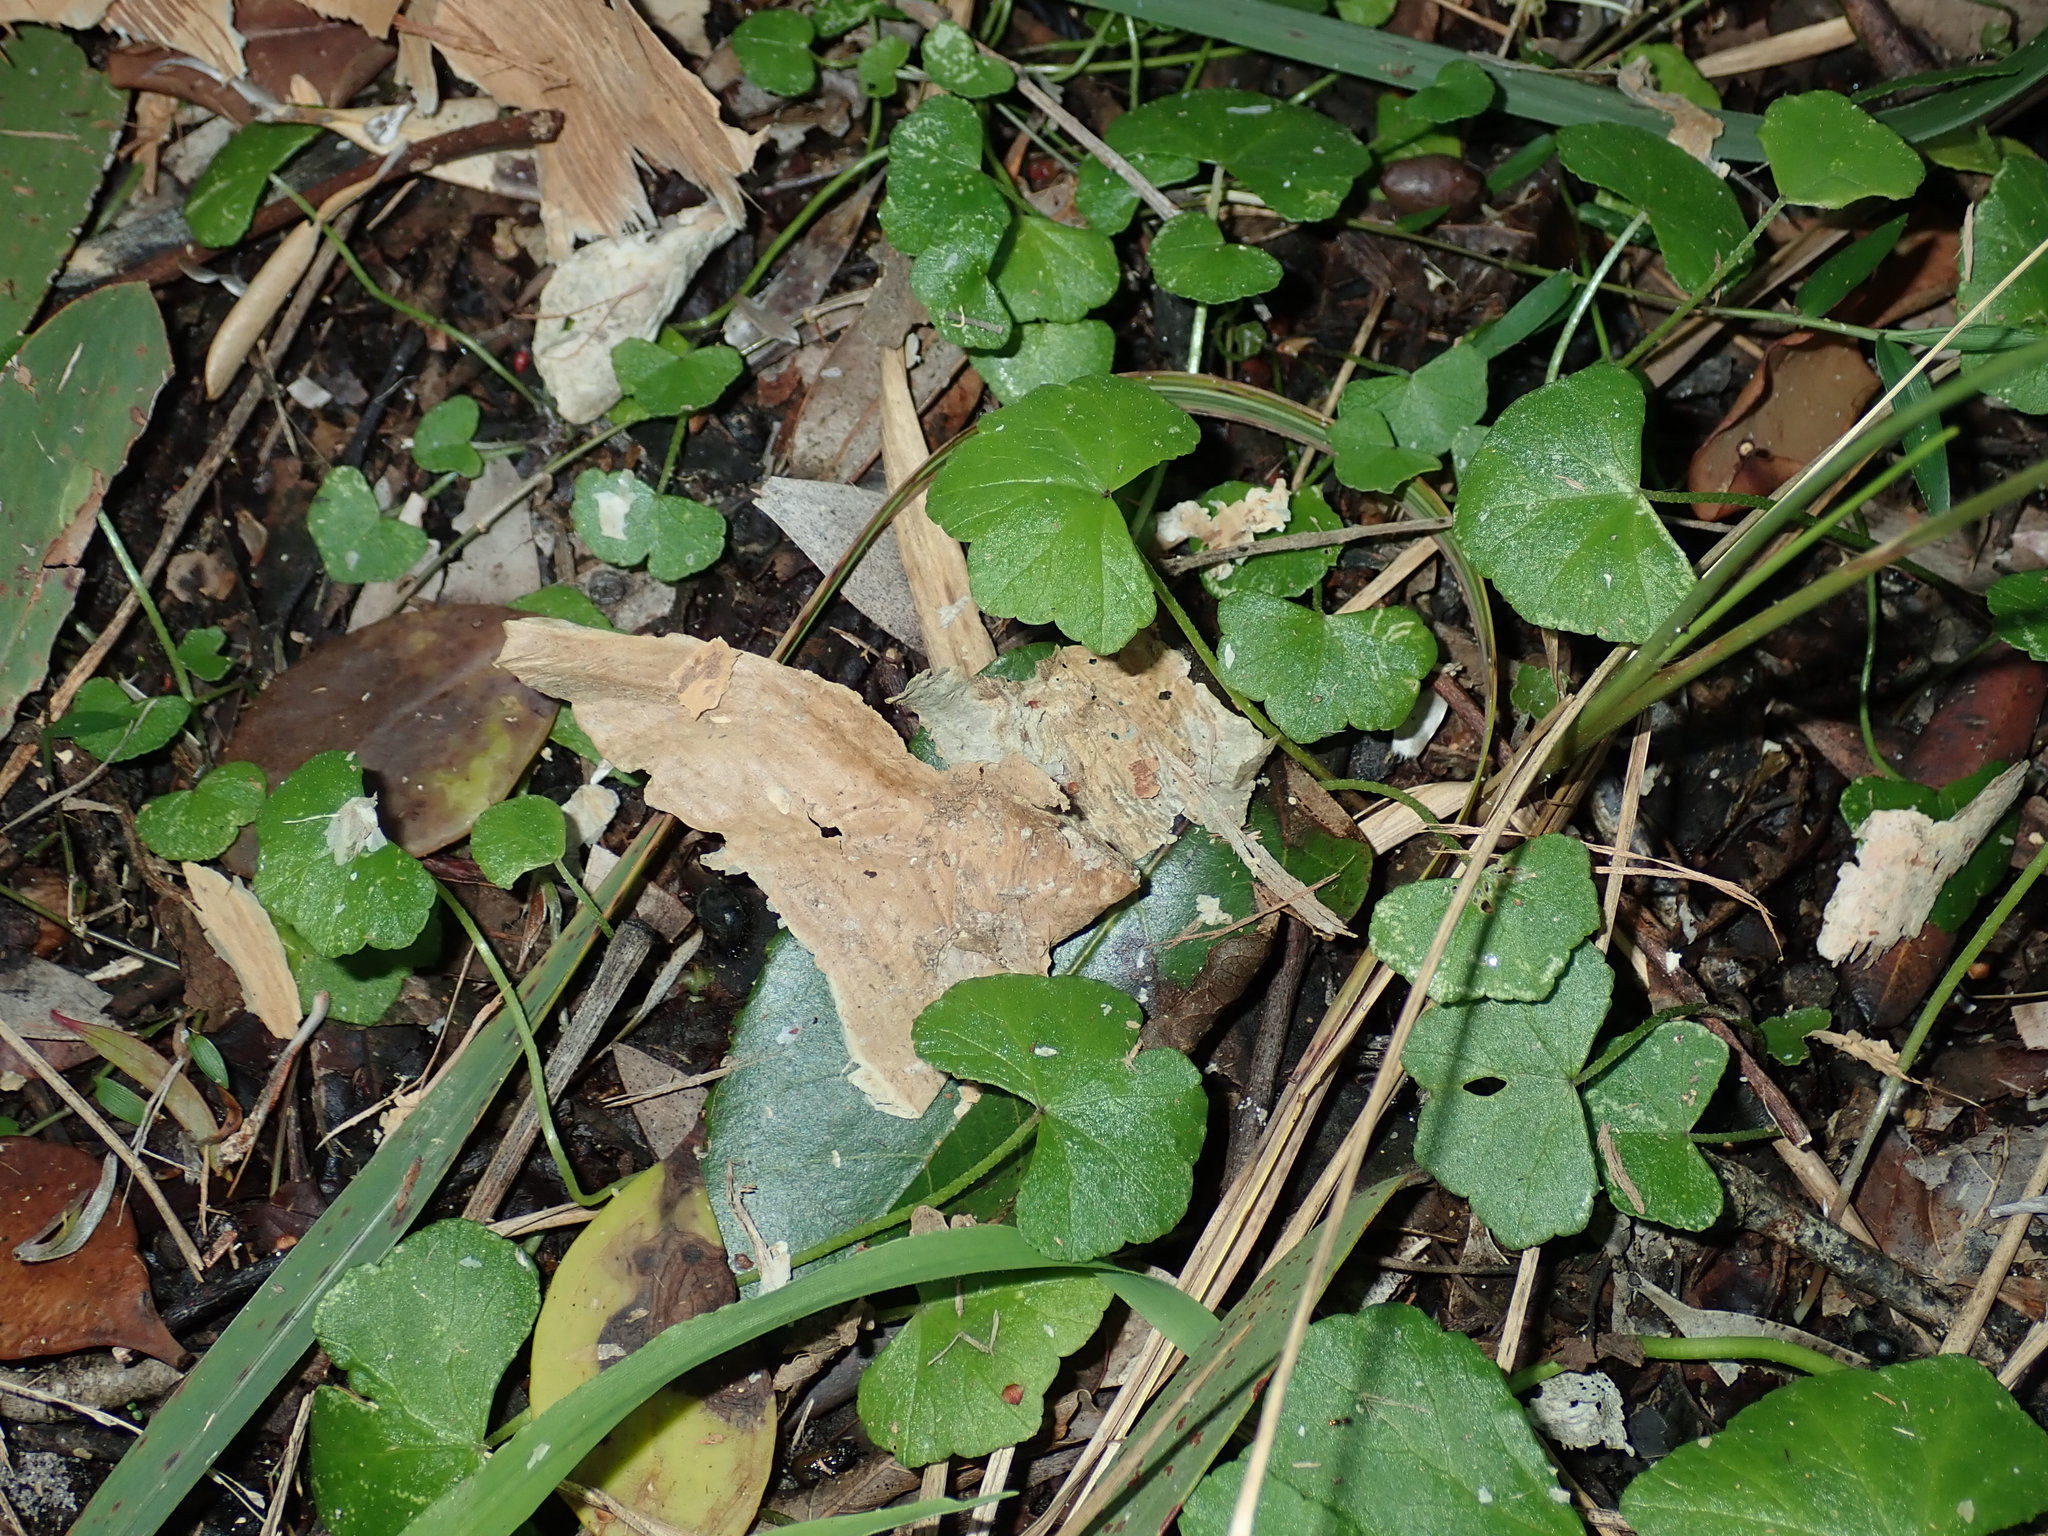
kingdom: Plantae
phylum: Tracheophyta
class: Magnoliopsida
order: Apiales
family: Araliaceae
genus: Hydrocotyle
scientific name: Hydrocotyle hirta
